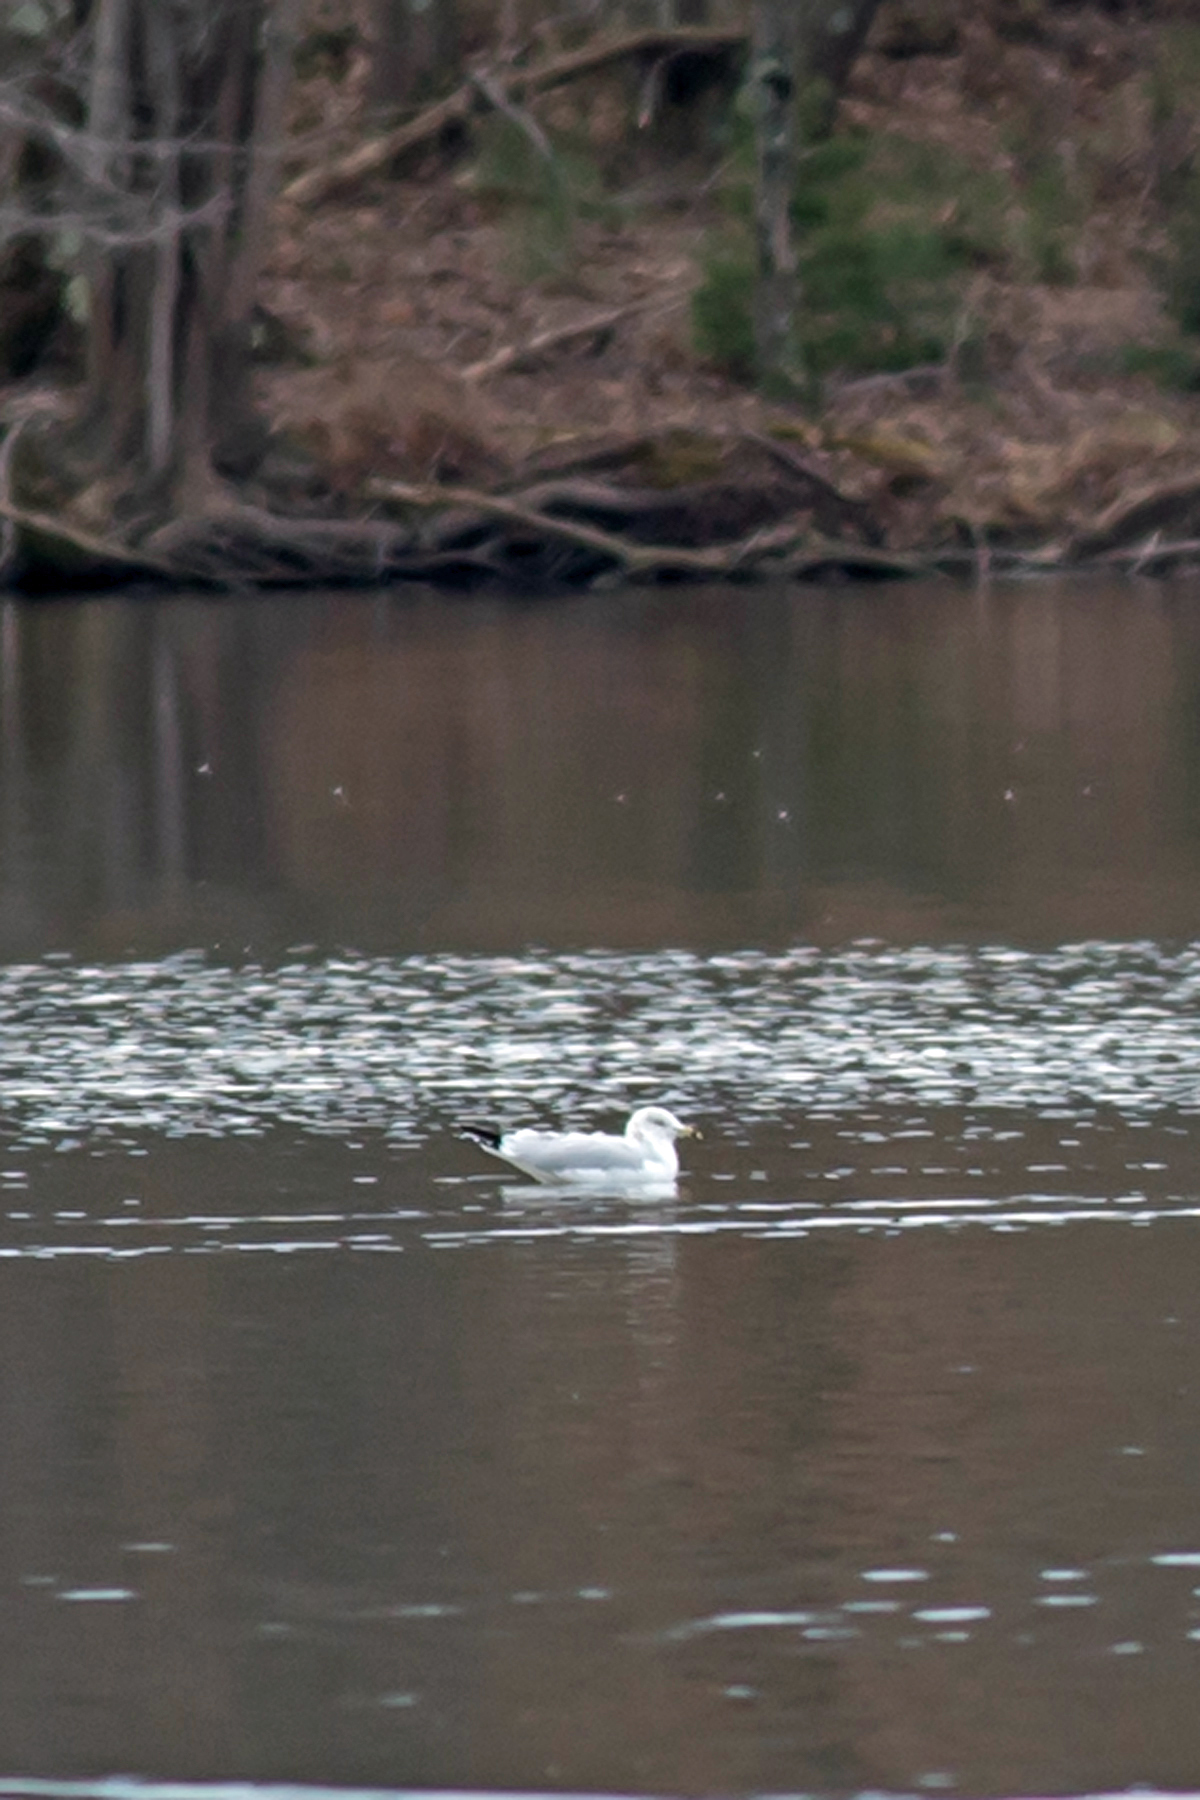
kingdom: Animalia
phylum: Chordata
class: Aves
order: Charadriiformes
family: Laridae
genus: Larus
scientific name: Larus delawarensis
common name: Ring-billed gull
